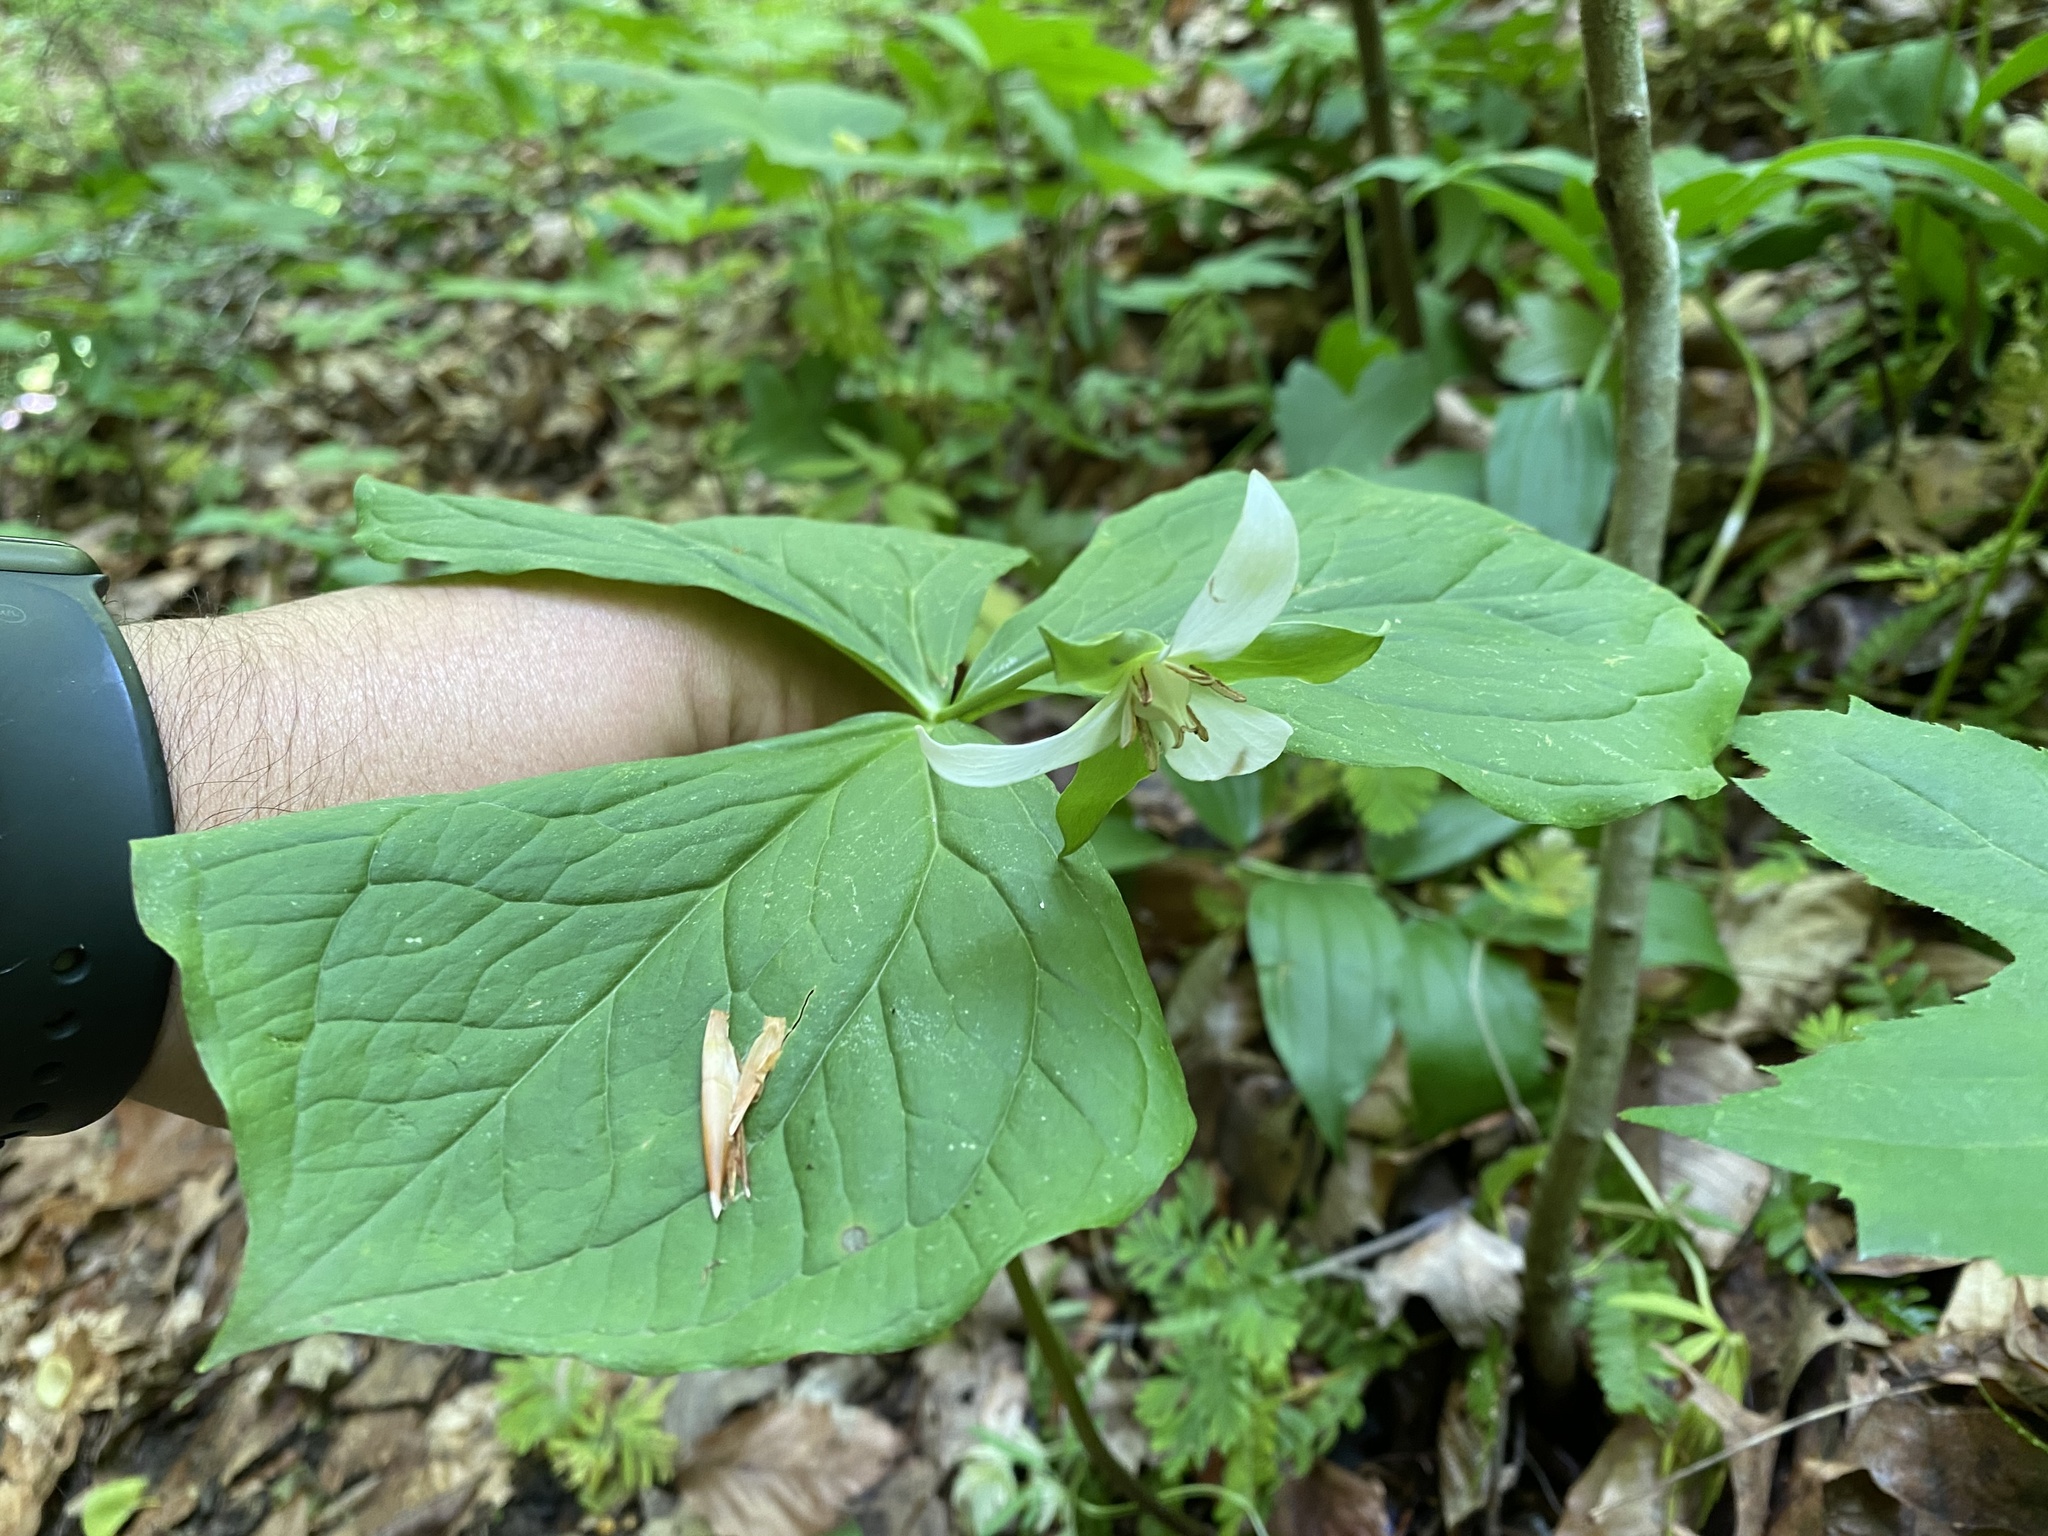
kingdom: Plantae
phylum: Tracheophyta
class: Liliopsida
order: Liliales
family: Melanthiaceae
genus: Trillium
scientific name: Trillium flexipes
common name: Drooping trillium
